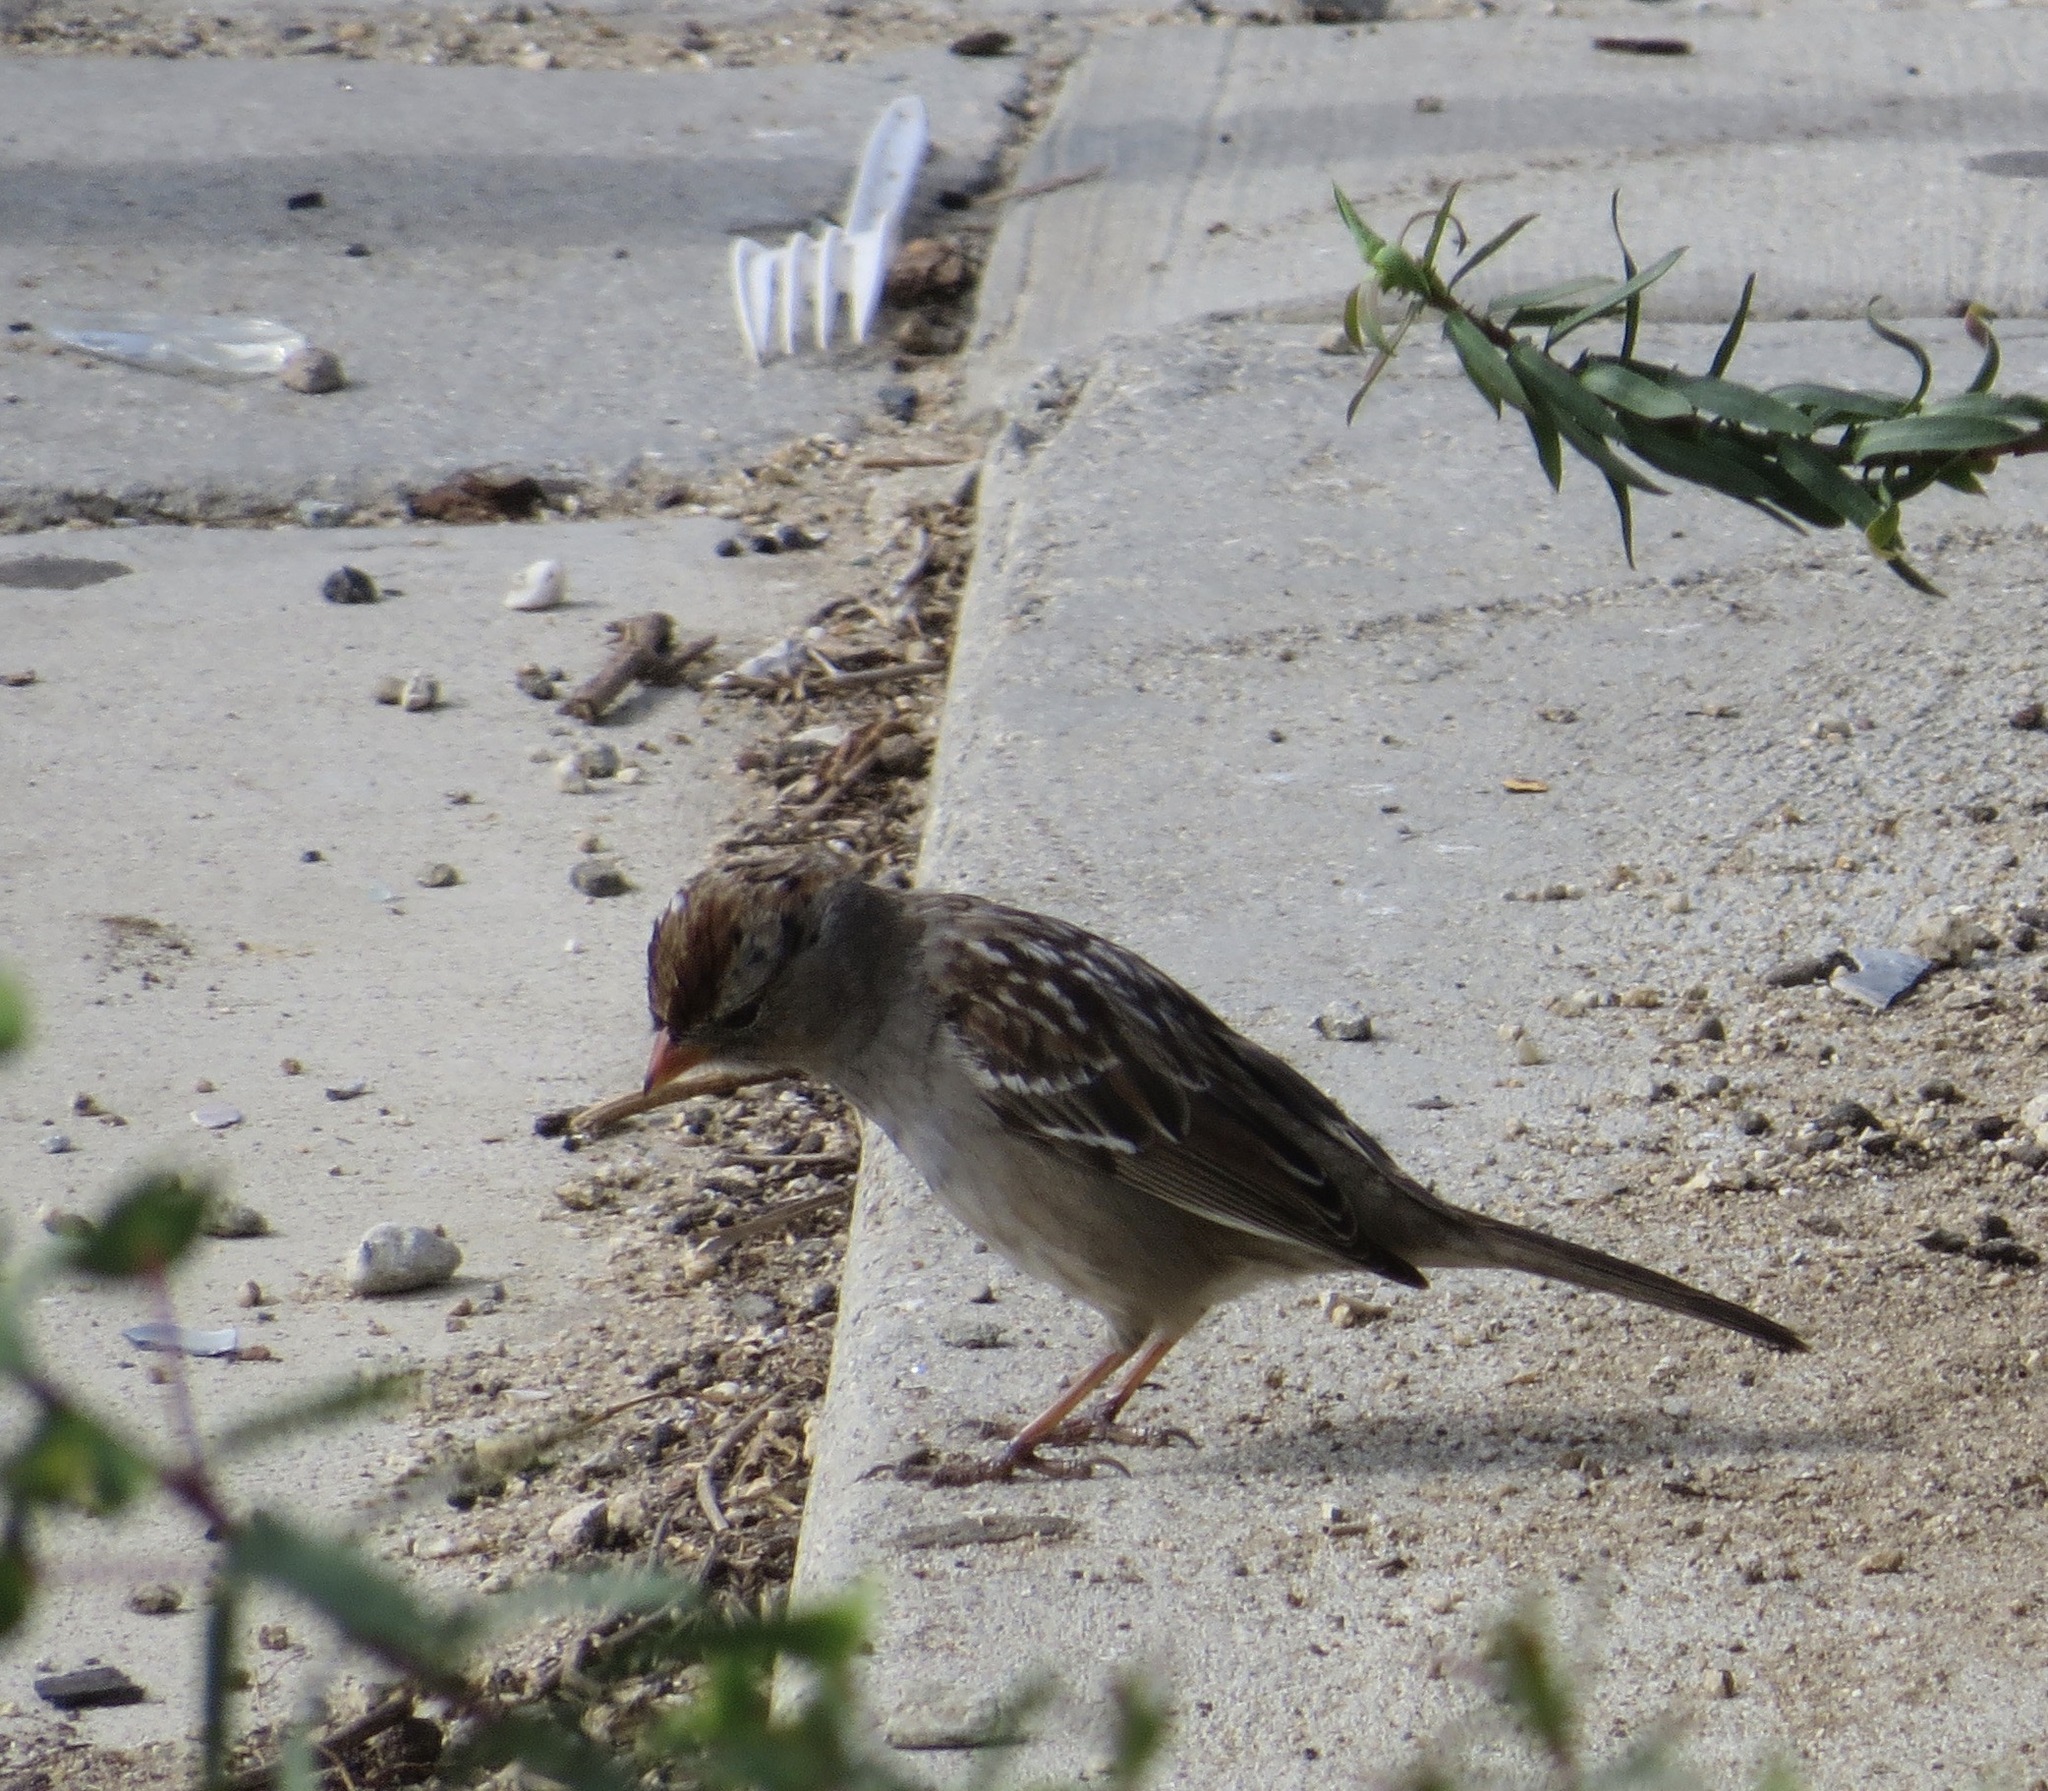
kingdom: Animalia
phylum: Chordata
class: Aves
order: Passeriformes
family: Passerellidae
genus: Zonotrichia
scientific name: Zonotrichia leucophrys
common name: White-crowned sparrow
